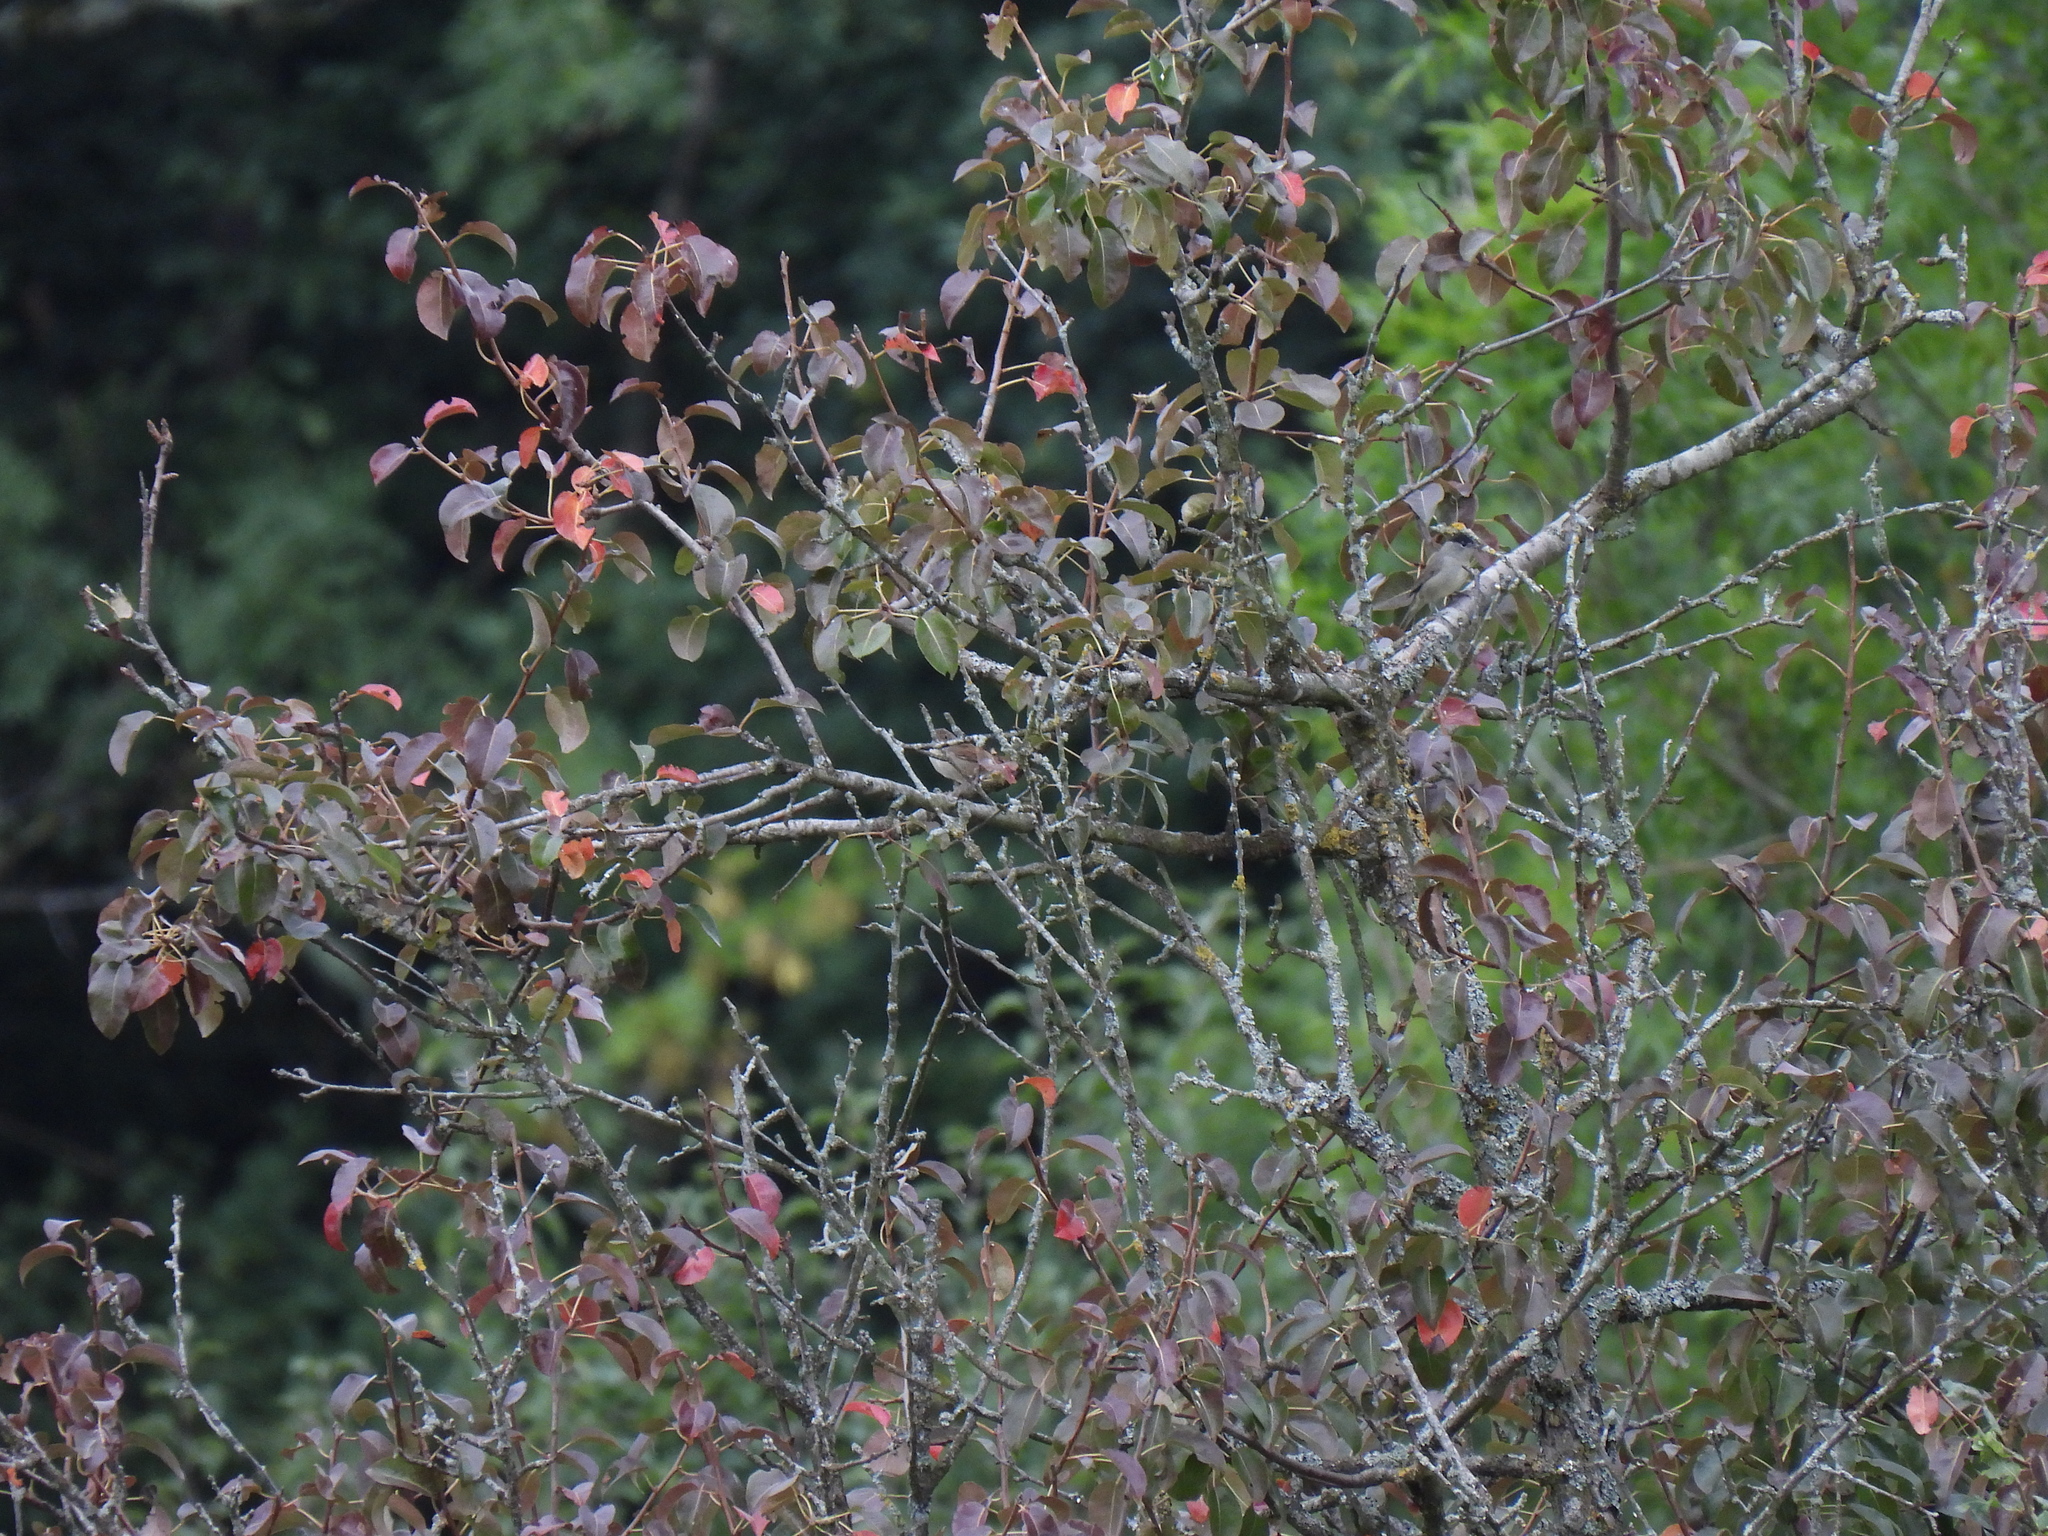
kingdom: Animalia
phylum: Chordata
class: Aves
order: Passeriformes
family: Sylviidae
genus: Sylvia
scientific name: Sylvia atricapilla
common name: Eurasian blackcap
